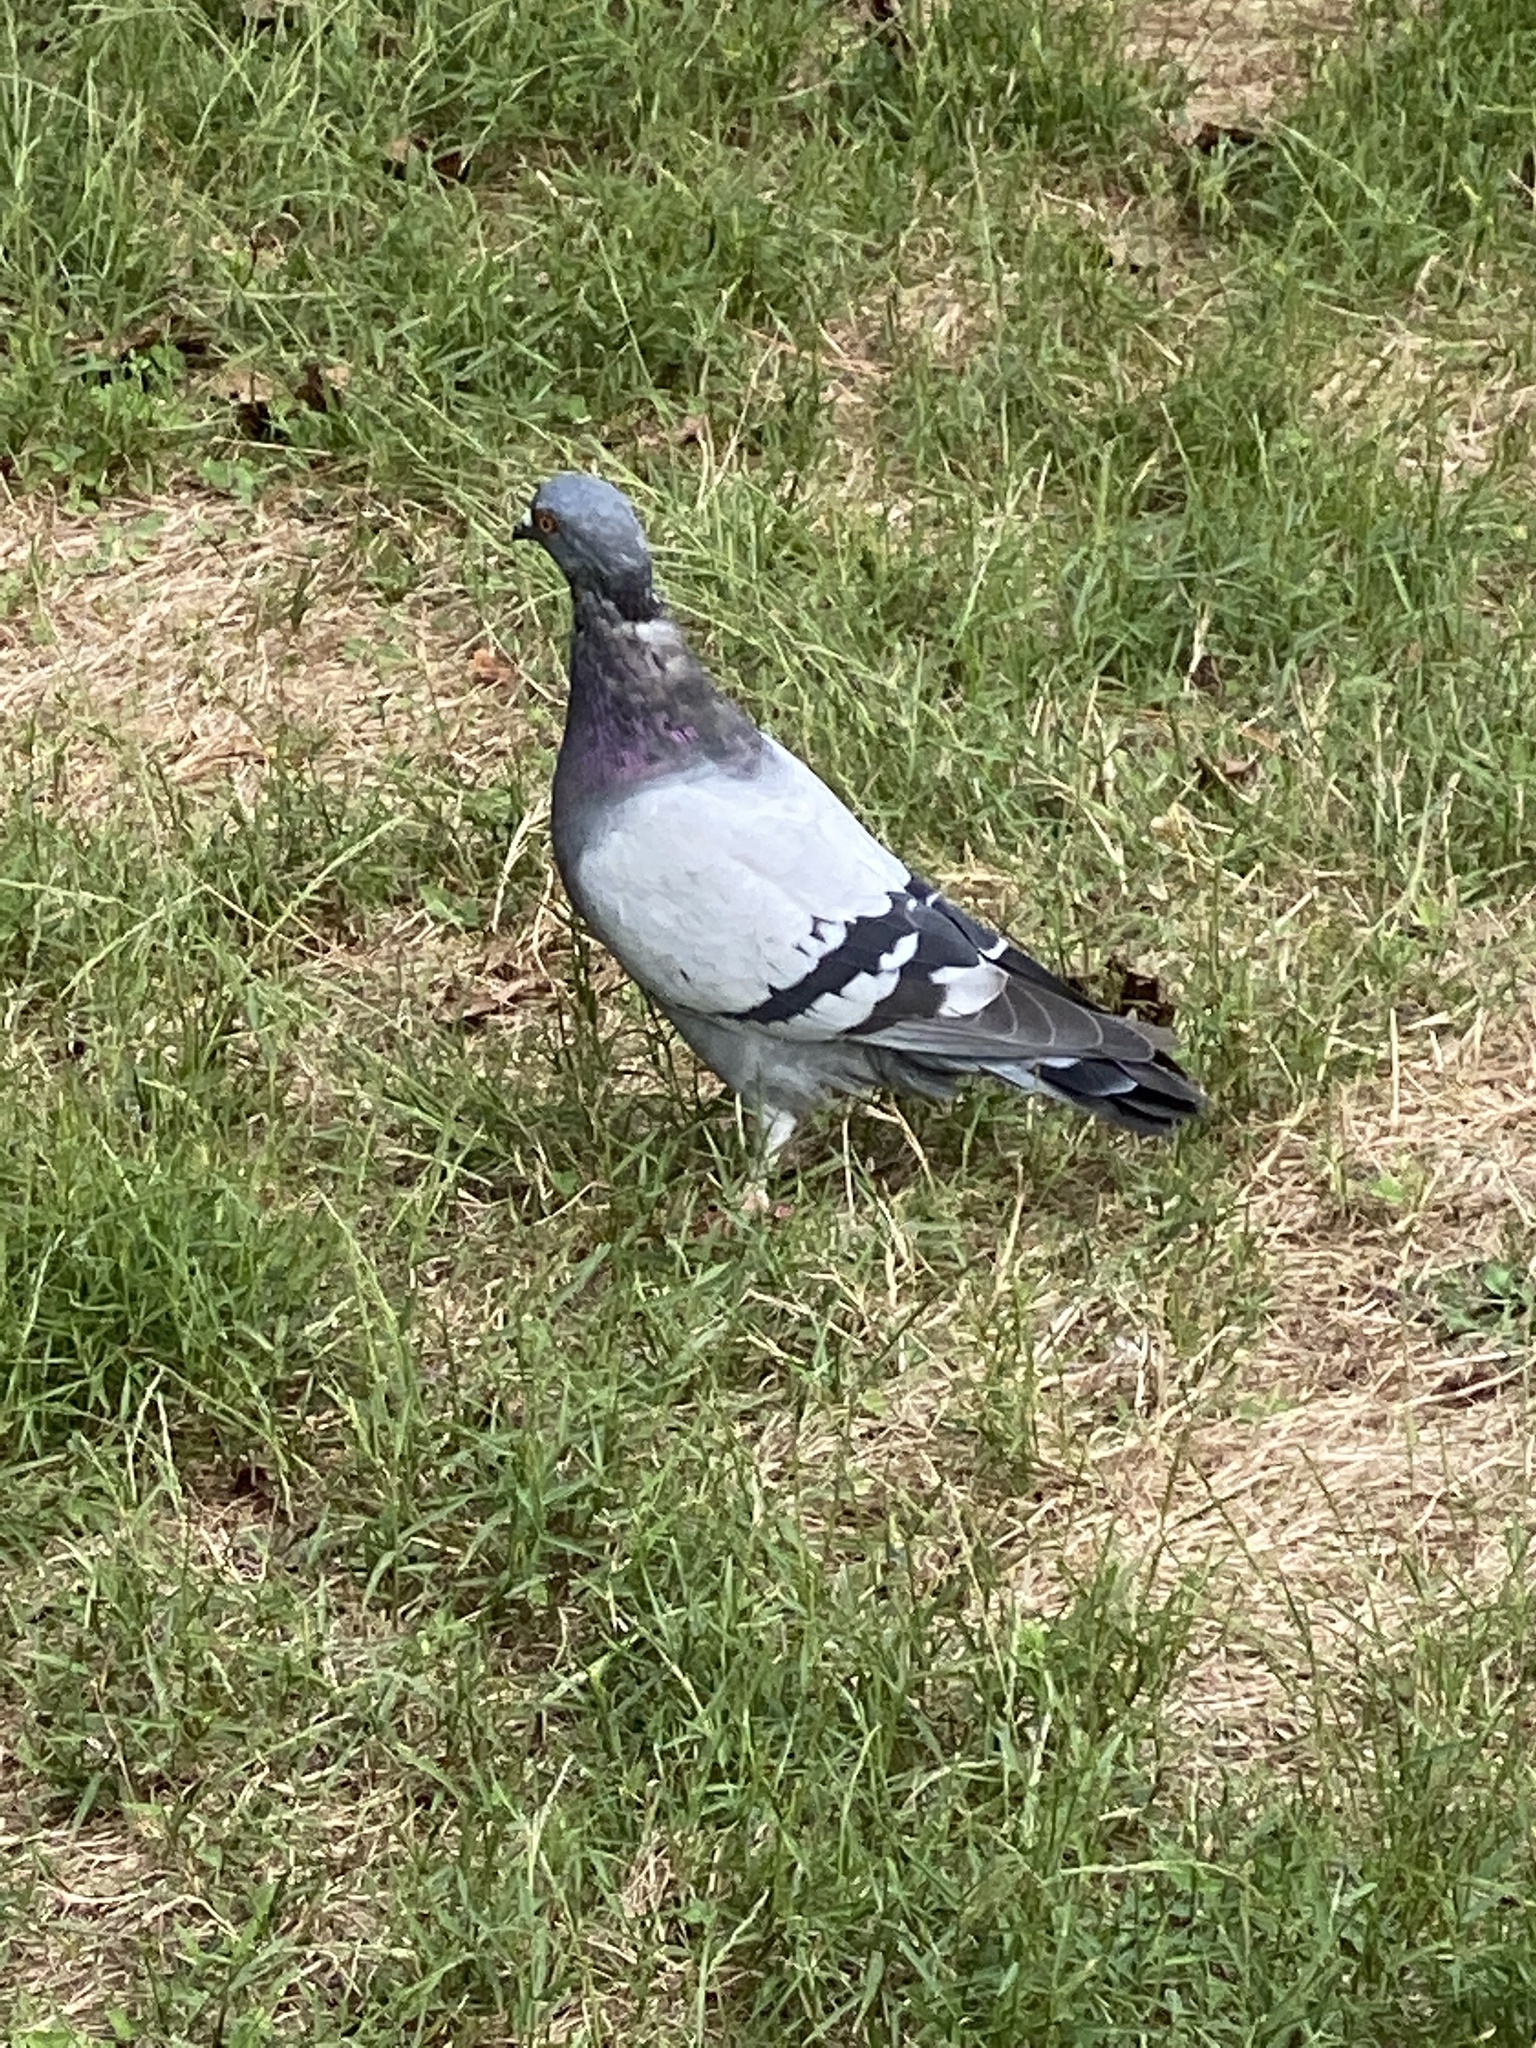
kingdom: Animalia
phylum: Chordata
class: Aves
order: Columbiformes
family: Columbidae
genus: Columba
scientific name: Columba livia
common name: Rock pigeon
